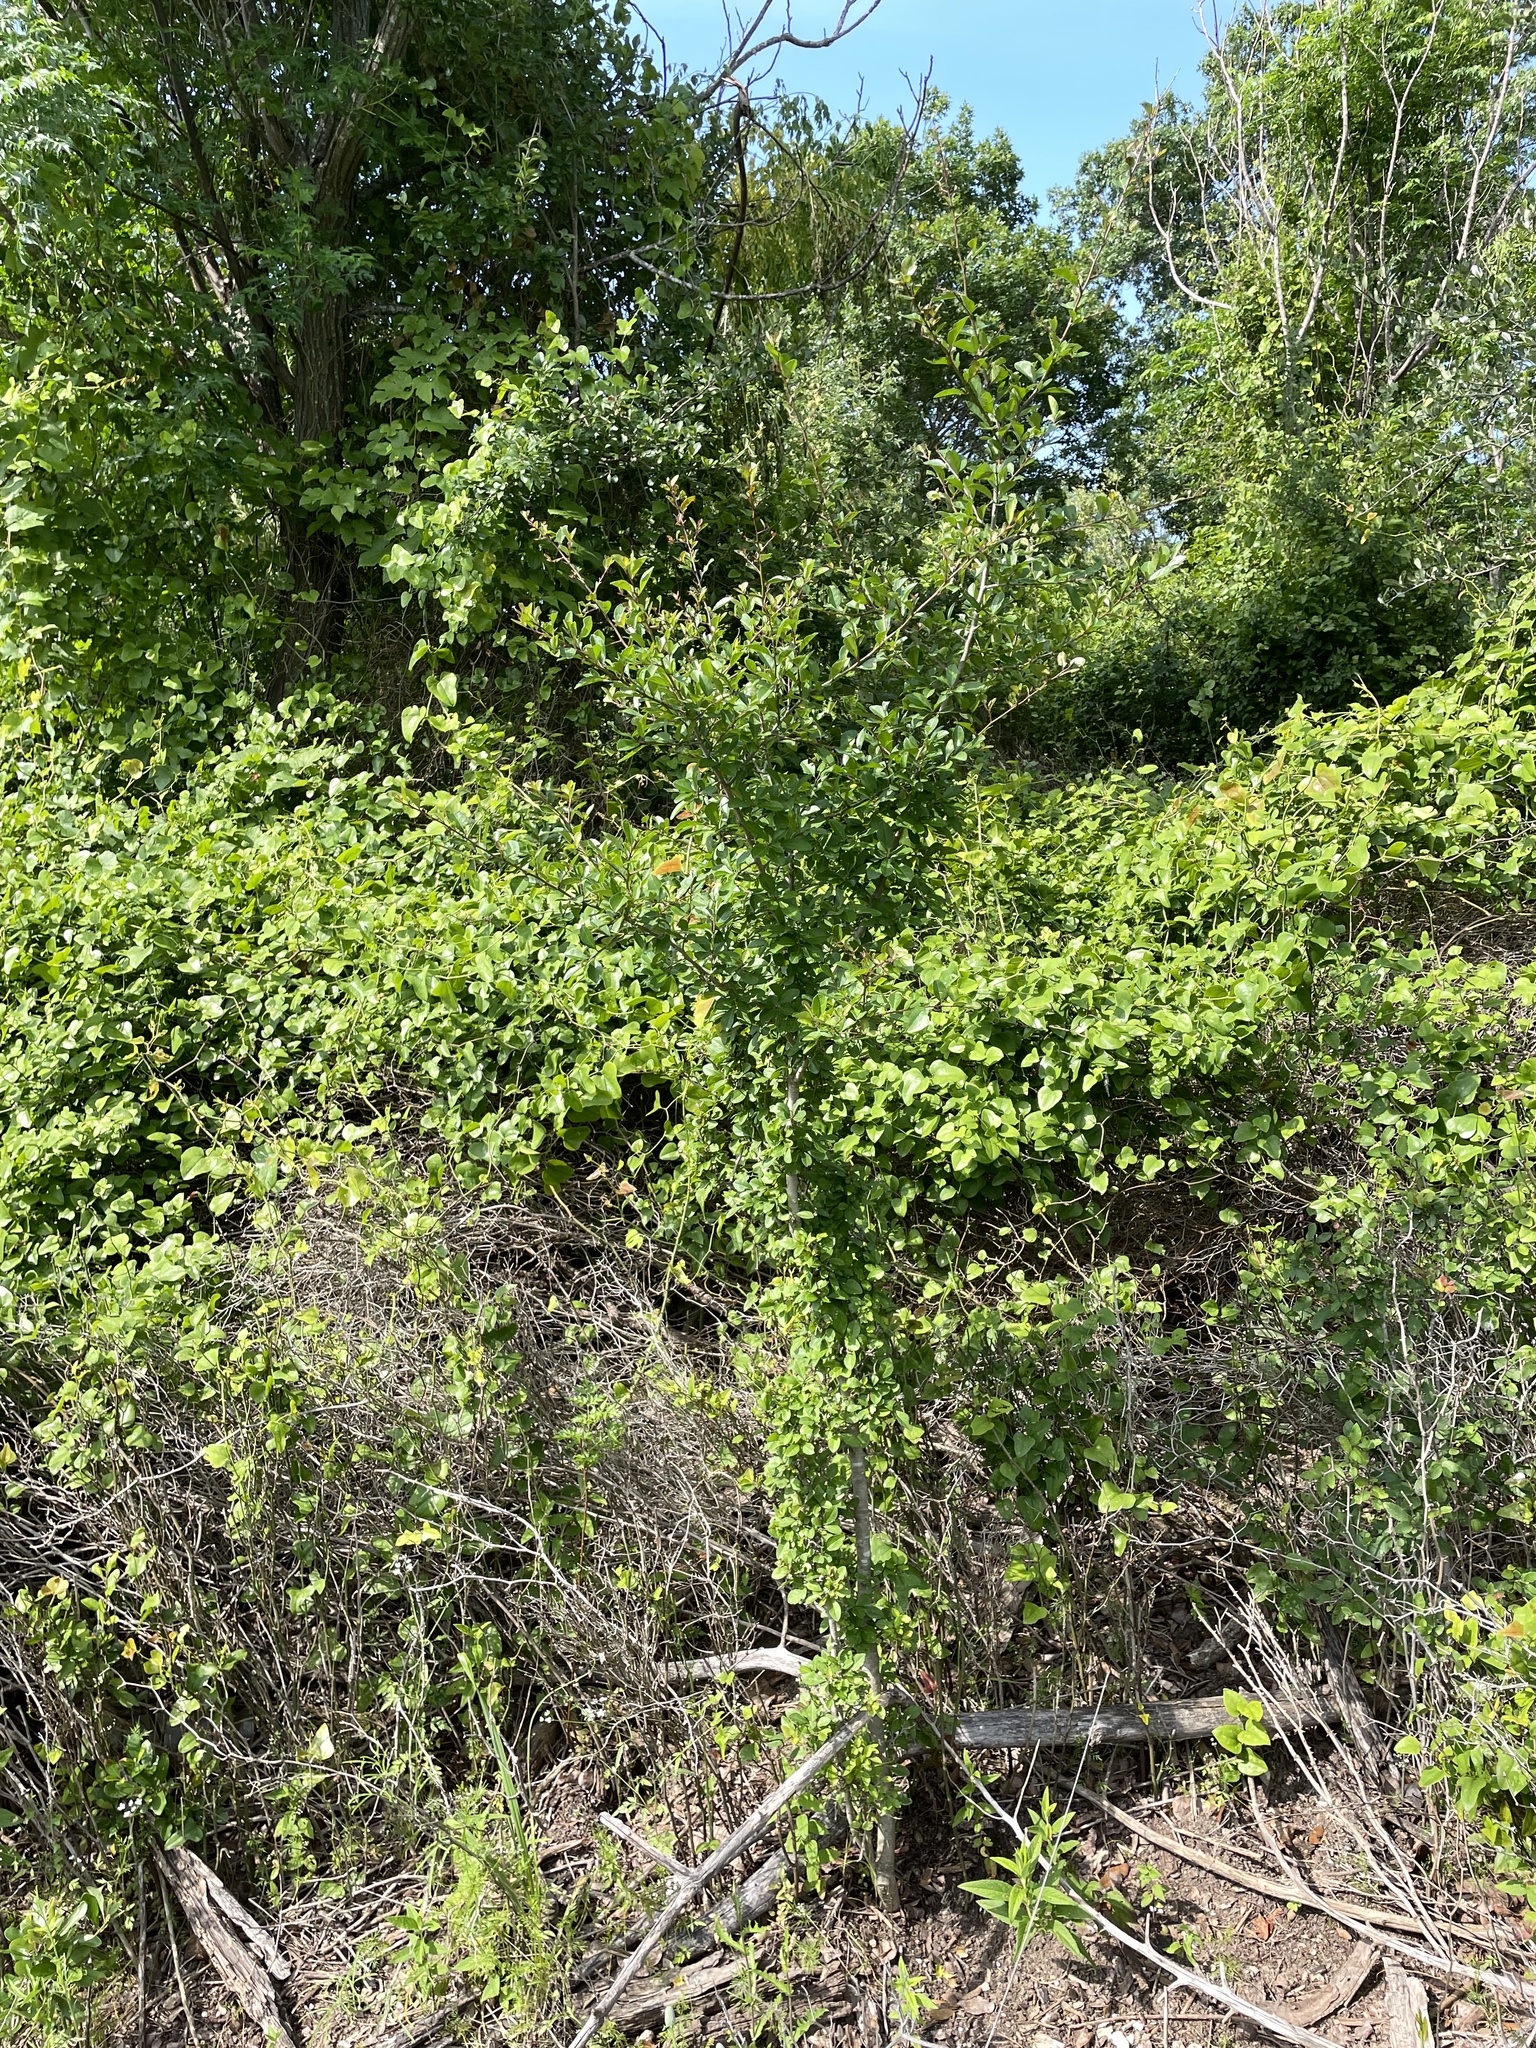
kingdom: Plantae
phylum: Tracheophyta
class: Magnoliopsida
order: Aquifoliales
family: Aquifoliaceae
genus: Ilex
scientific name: Ilex vomitoria
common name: Yaupon holly
